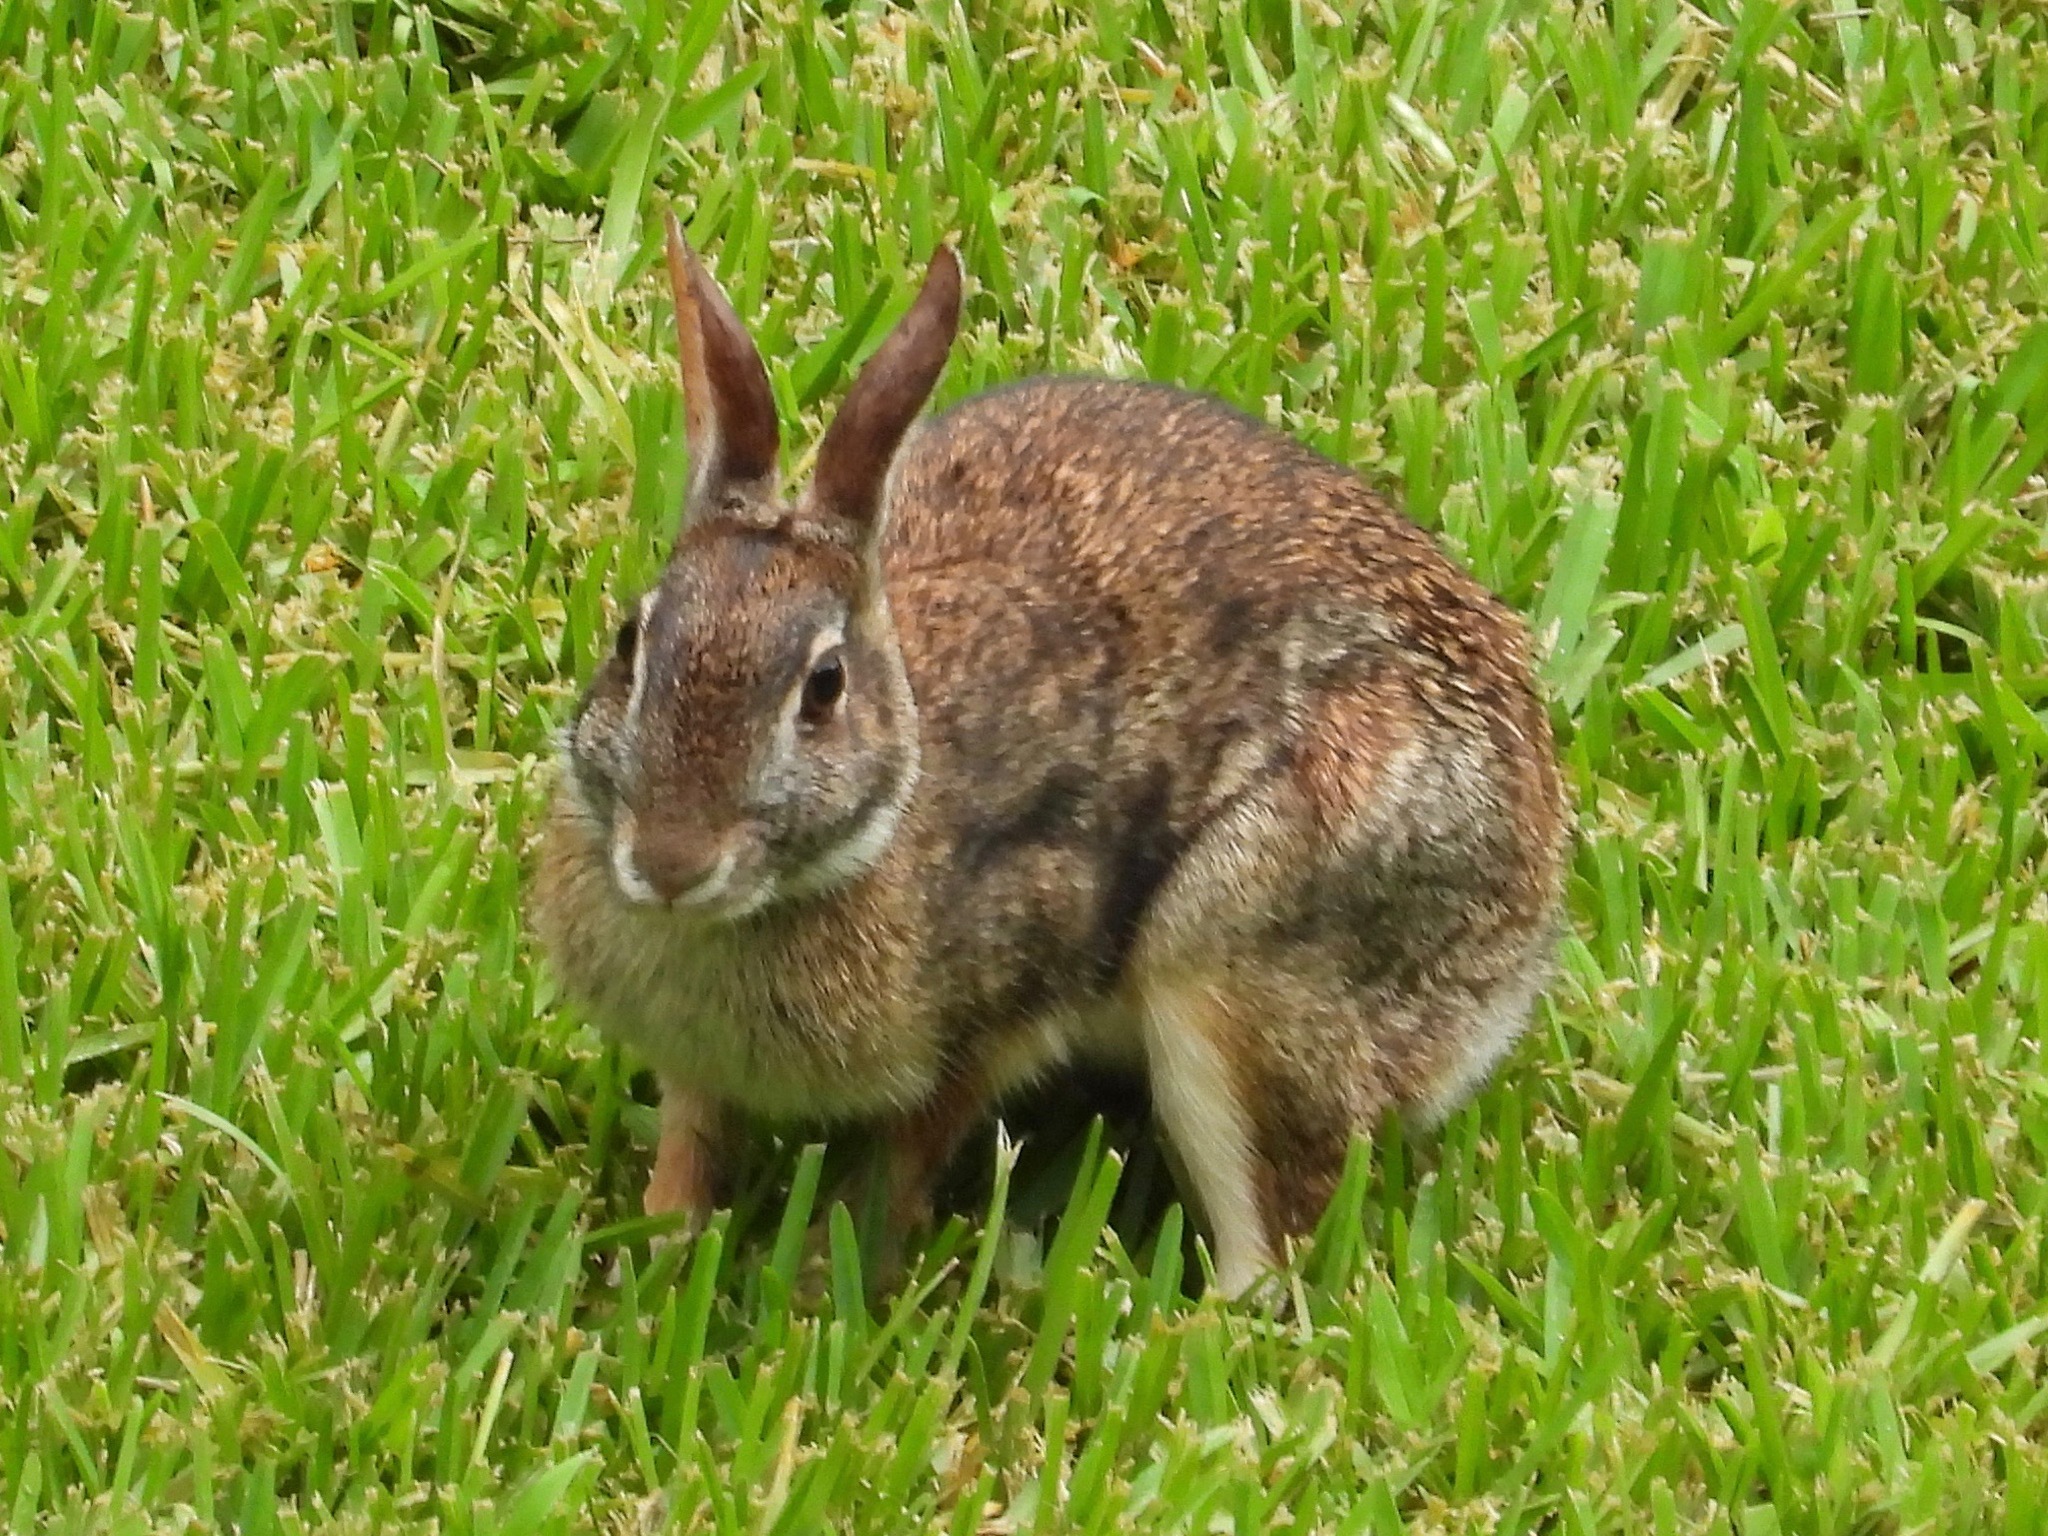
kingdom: Animalia
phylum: Chordata
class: Mammalia
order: Lagomorpha
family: Leporidae
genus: Sylvilagus
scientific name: Sylvilagus floridanus
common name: Eastern cottontail
